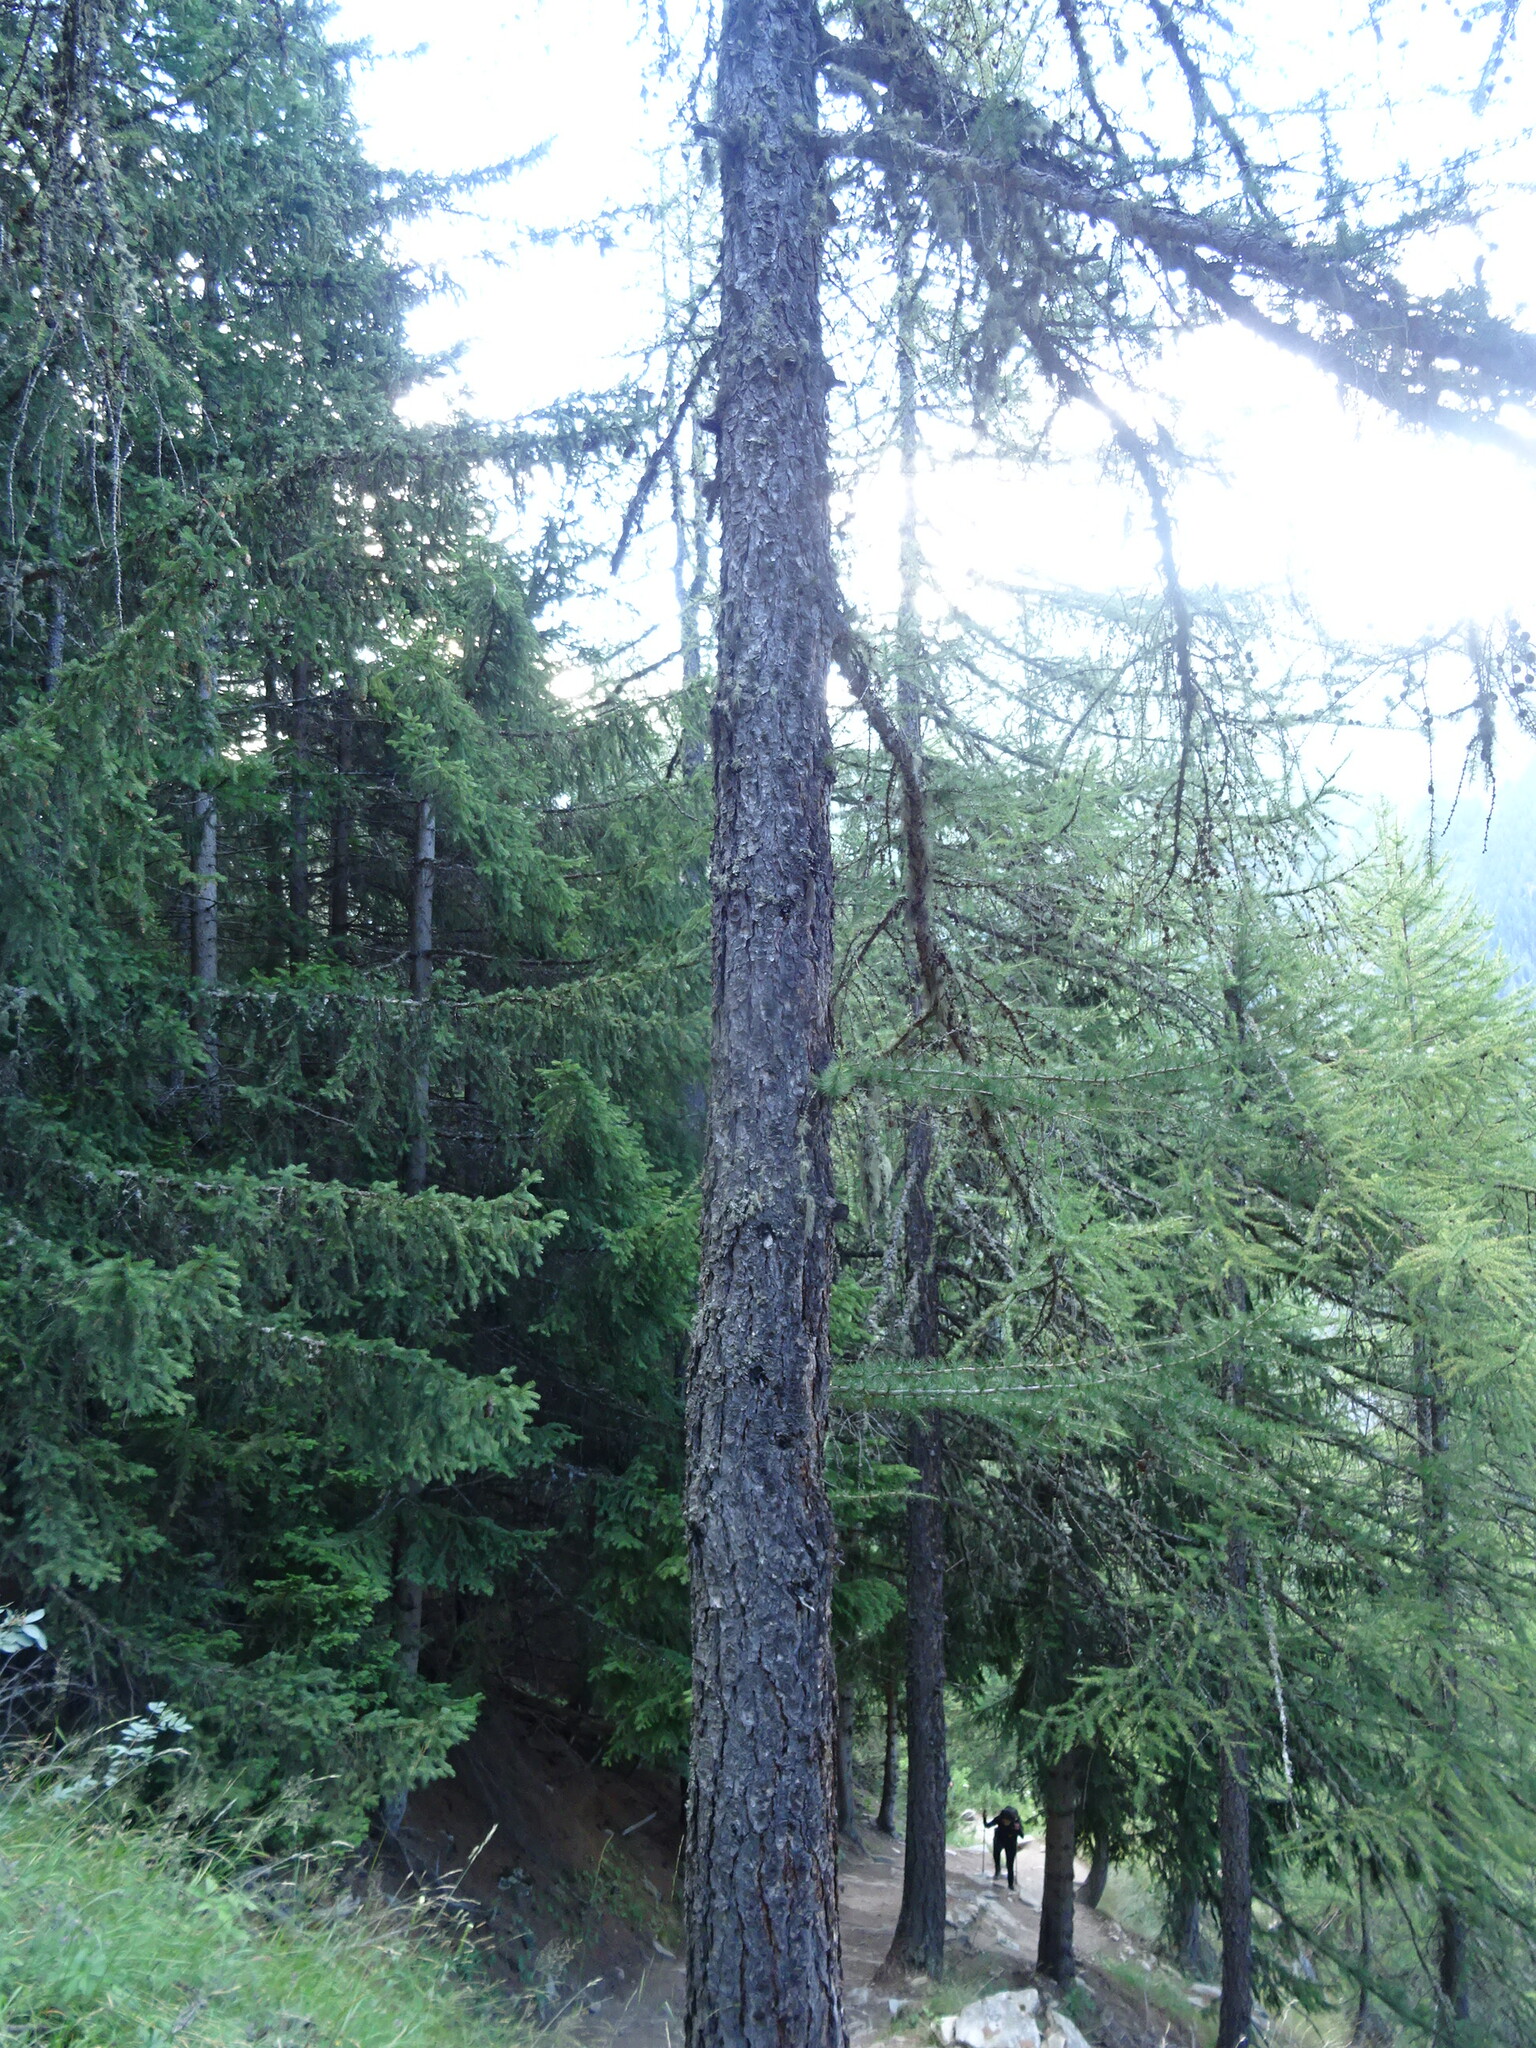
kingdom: Plantae
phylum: Tracheophyta
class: Pinopsida
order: Pinales
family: Pinaceae
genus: Larix
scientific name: Larix decidua
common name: European larch
